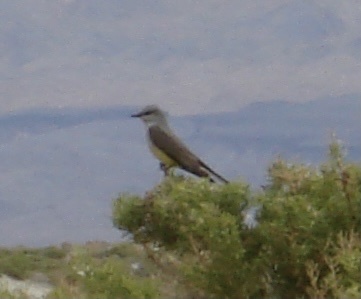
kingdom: Animalia
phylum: Chordata
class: Aves
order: Passeriformes
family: Tyrannidae
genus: Tyrannus
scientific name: Tyrannus verticalis
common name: Western kingbird
